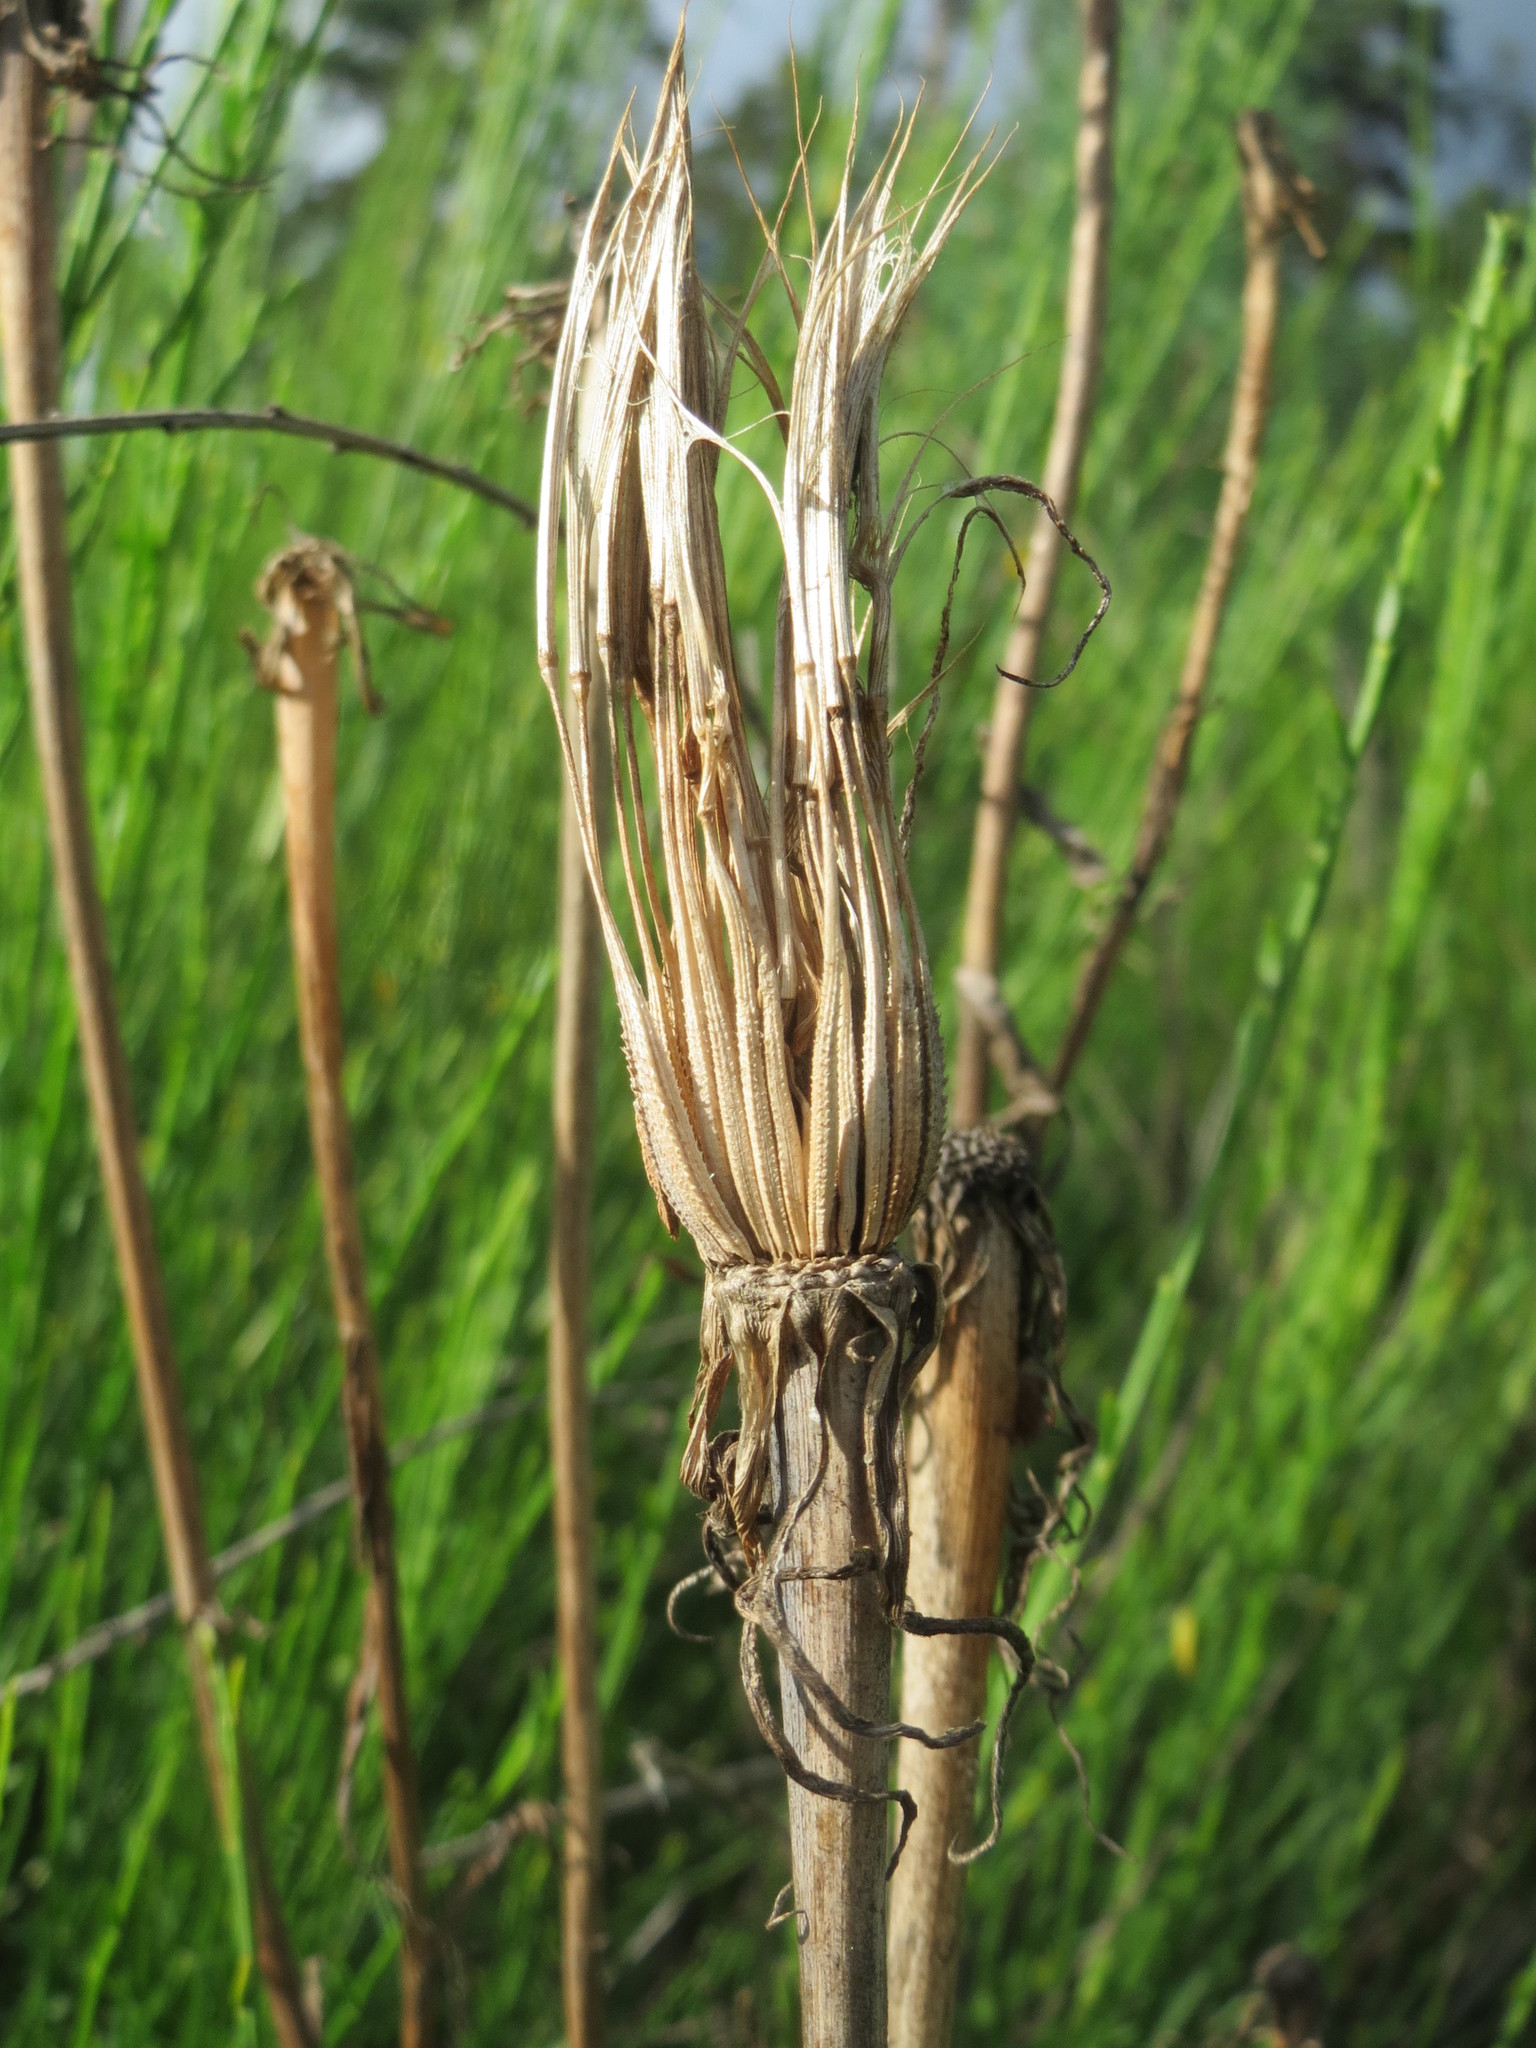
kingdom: Plantae
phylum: Tracheophyta
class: Magnoliopsida
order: Asterales
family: Asteraceae
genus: Tragopogon
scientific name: Tragopogon dubius
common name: Yellow salsify
